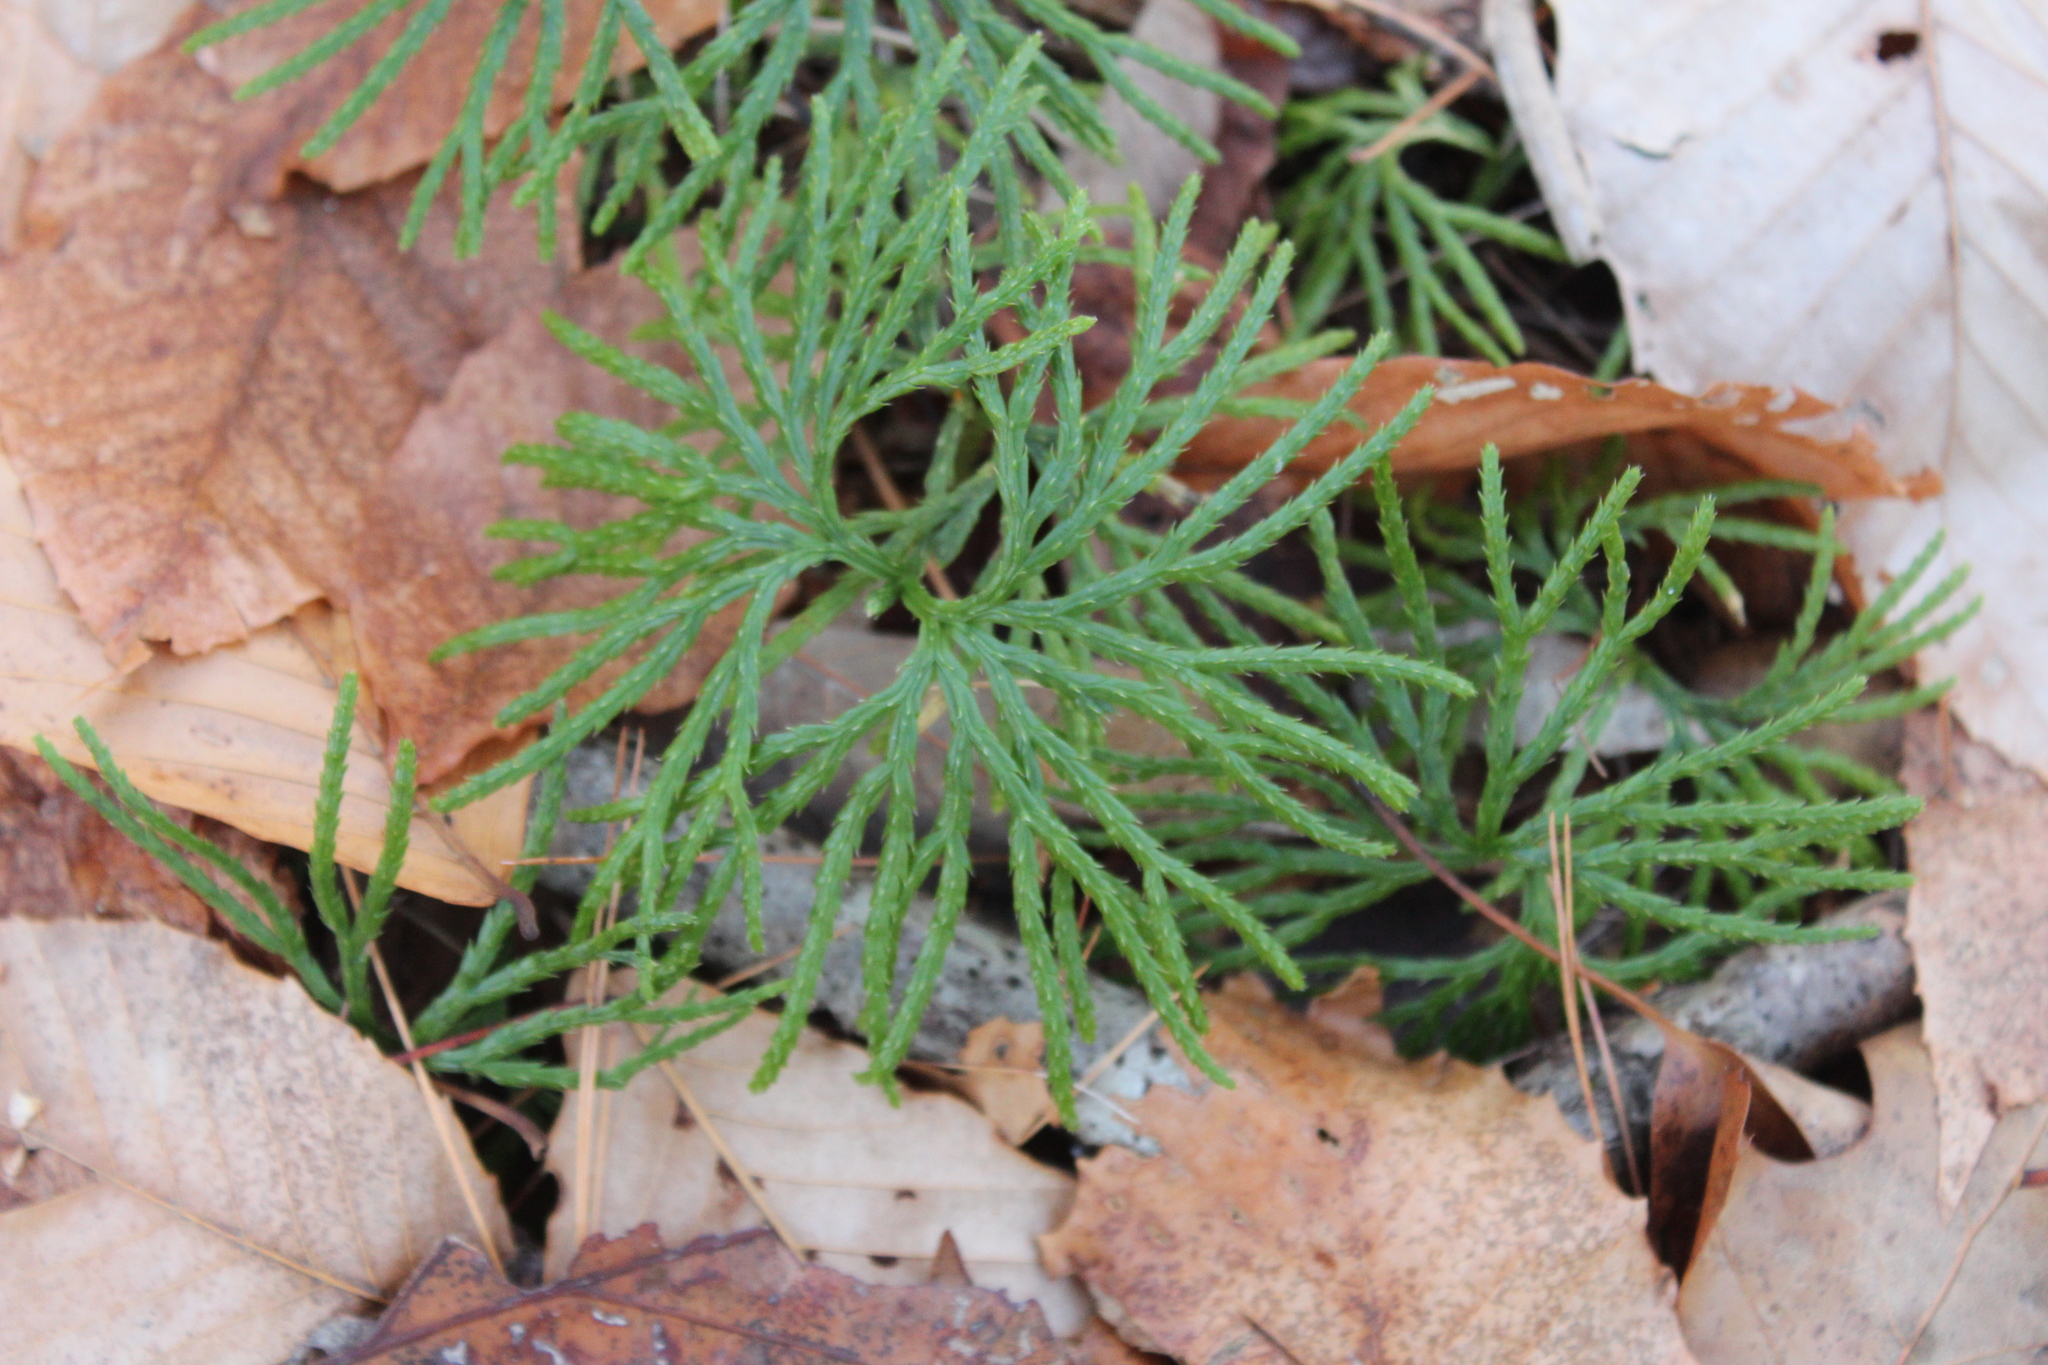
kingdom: Plantae
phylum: Tracheophyta
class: Lycopodiopsida
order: Lycopodiales
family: Lycopodiaceae
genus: Diphasiastrum
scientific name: Diphasiastrum digitatum
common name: Southern running-pine
